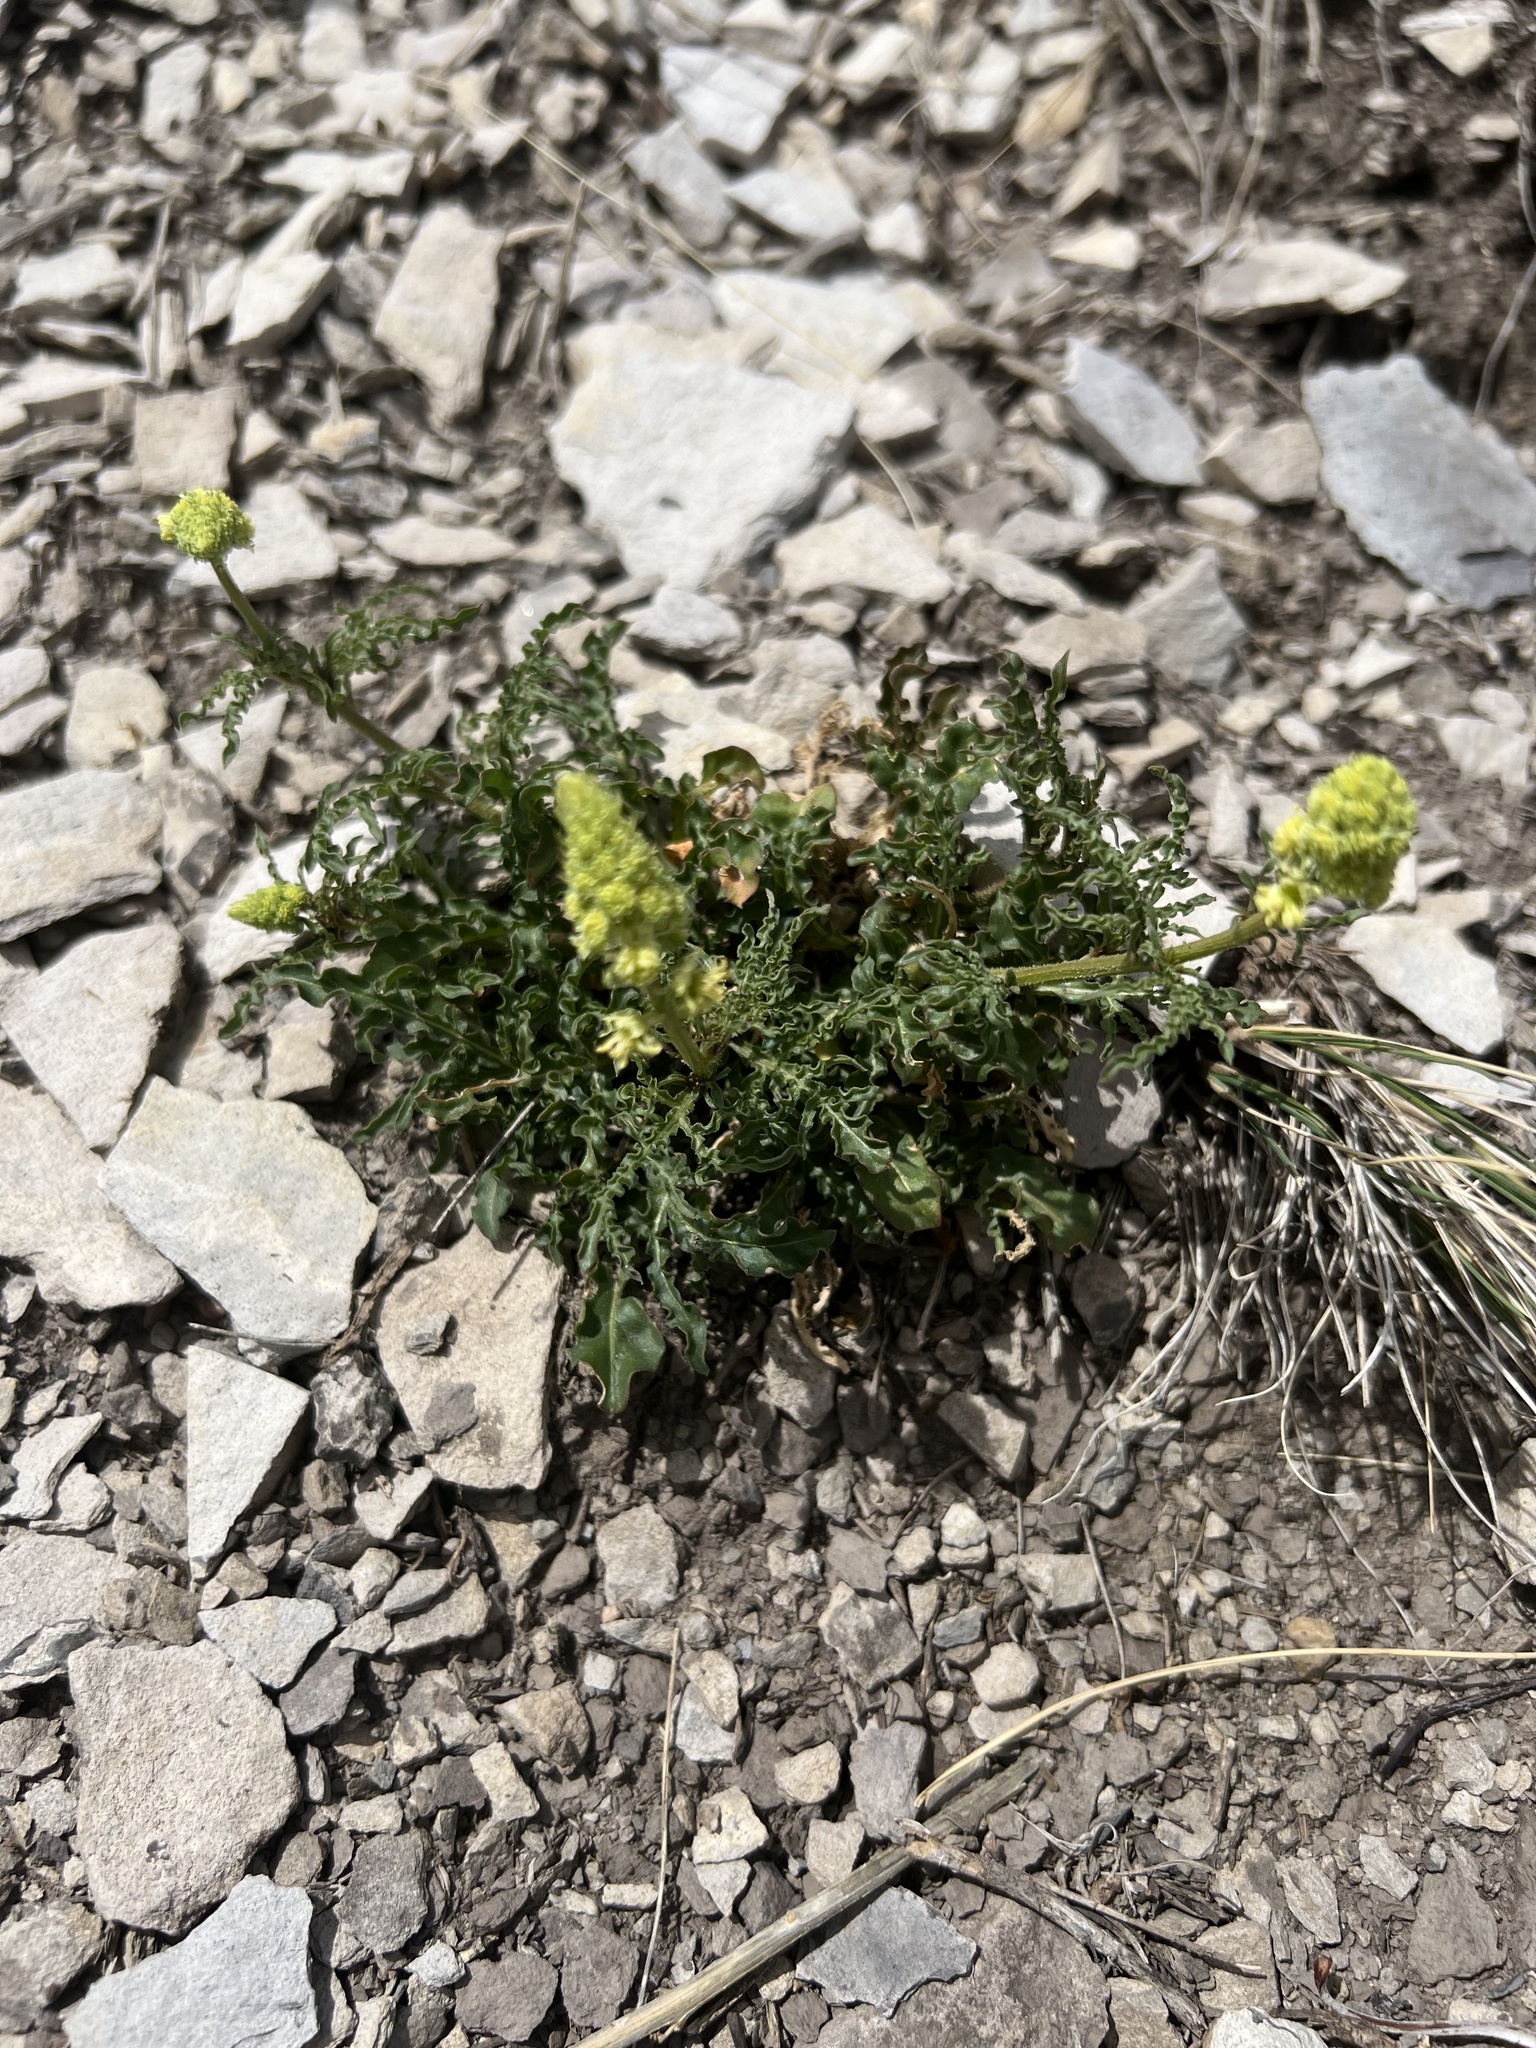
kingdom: Plantae
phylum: Tracheophyta
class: Magnoliopsida
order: Brassicales
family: Resedaceae
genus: Reseda
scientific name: Reseda lutea
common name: Wild mignonette
